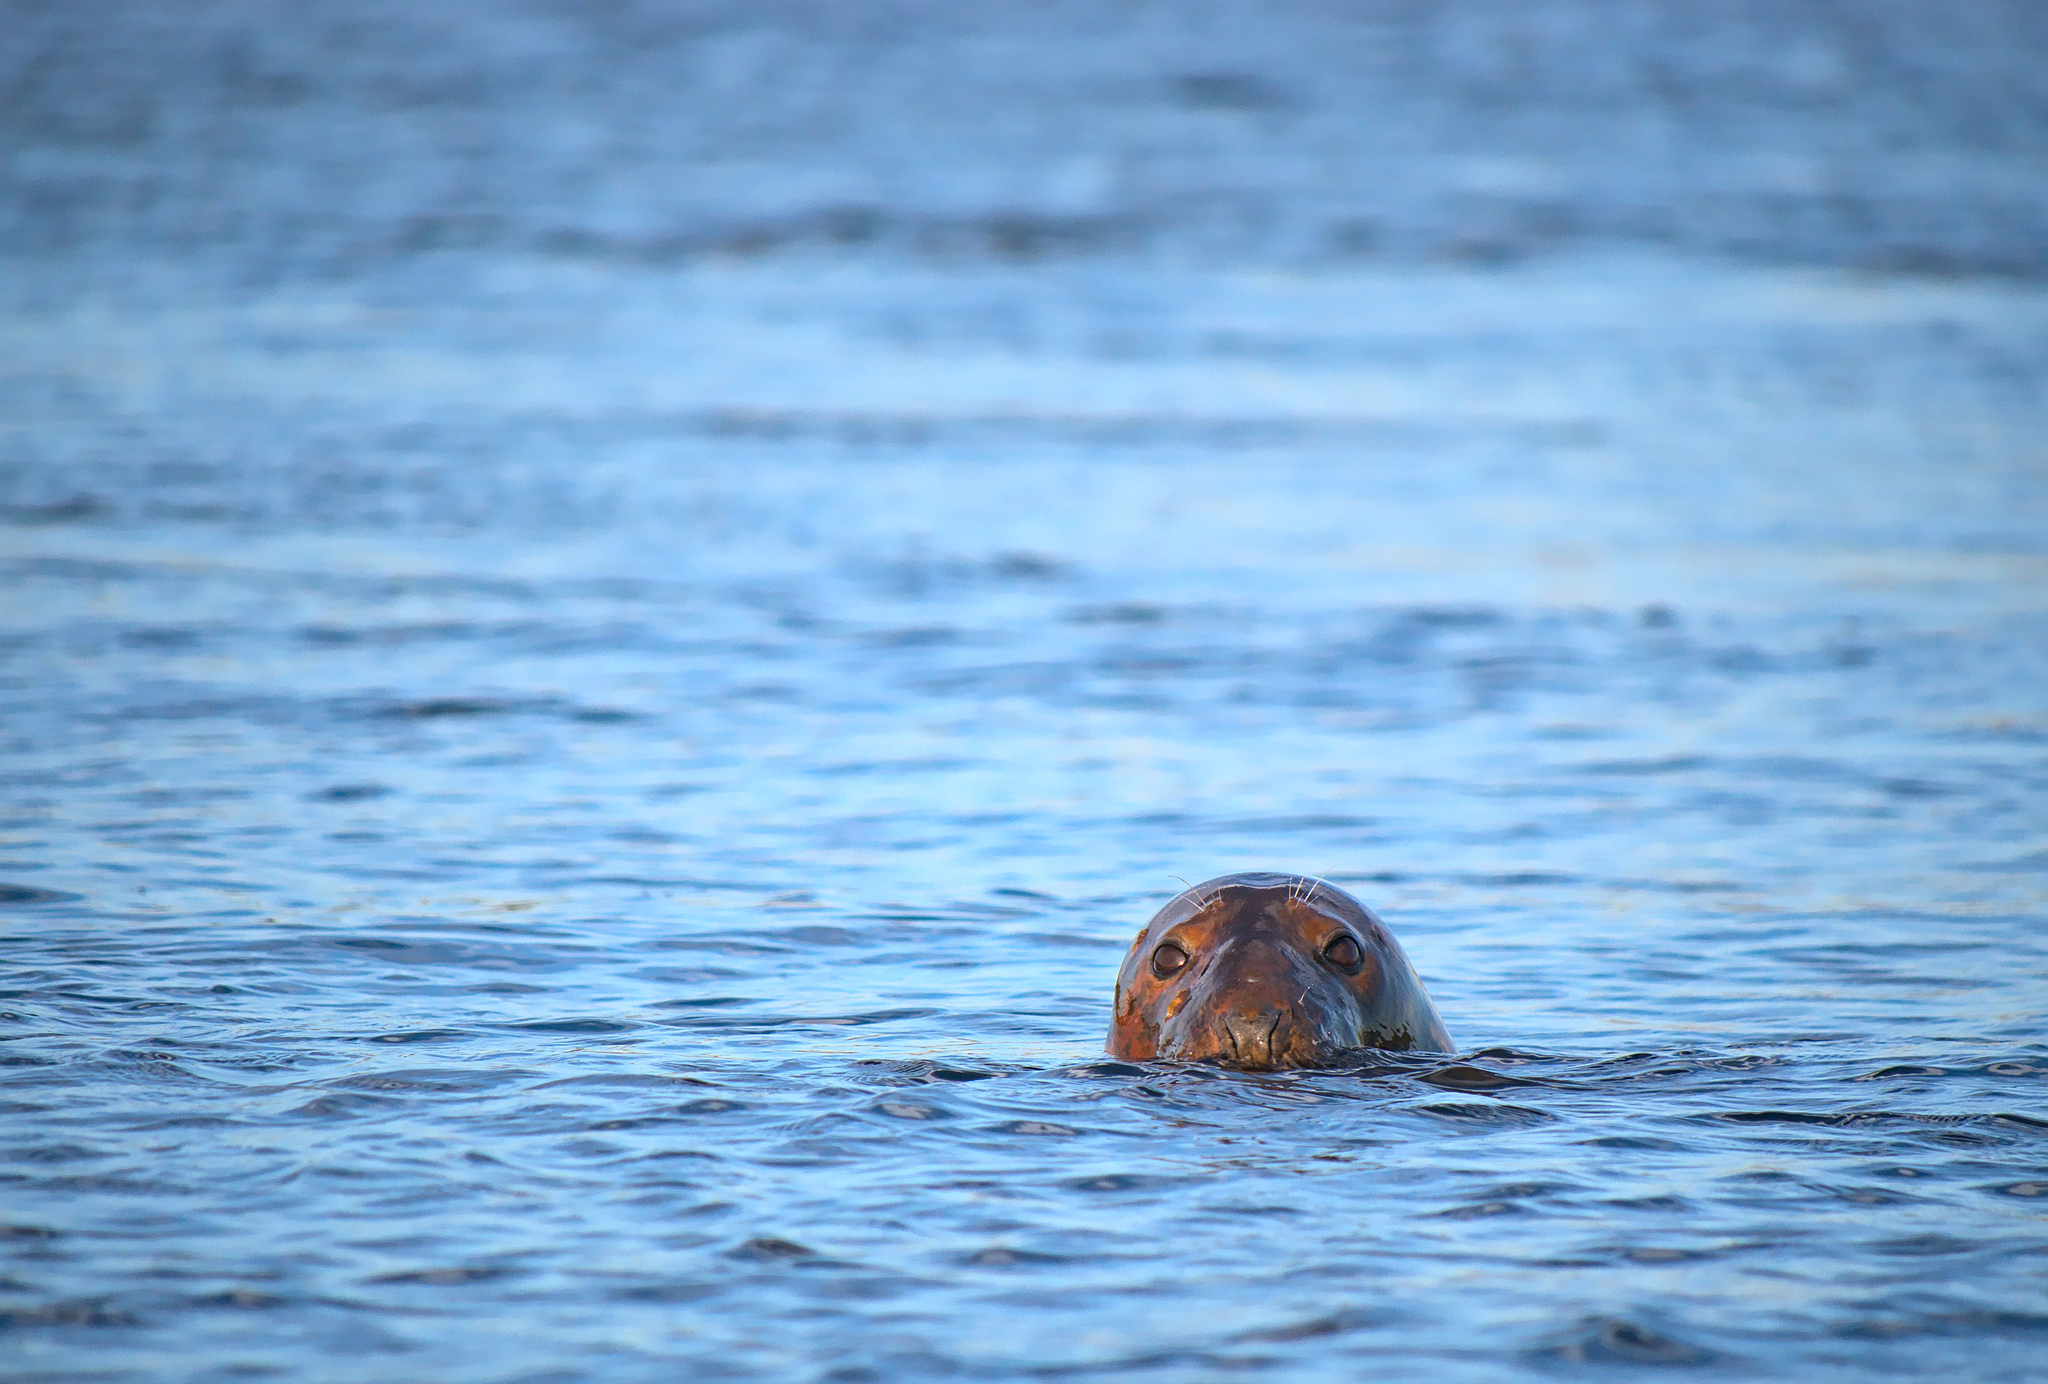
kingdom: Animalia
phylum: Chordata
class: Mammalia
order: Carnivora
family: Phocidae
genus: Halichoerus
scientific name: Halichoerus grypus
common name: Grey seal
